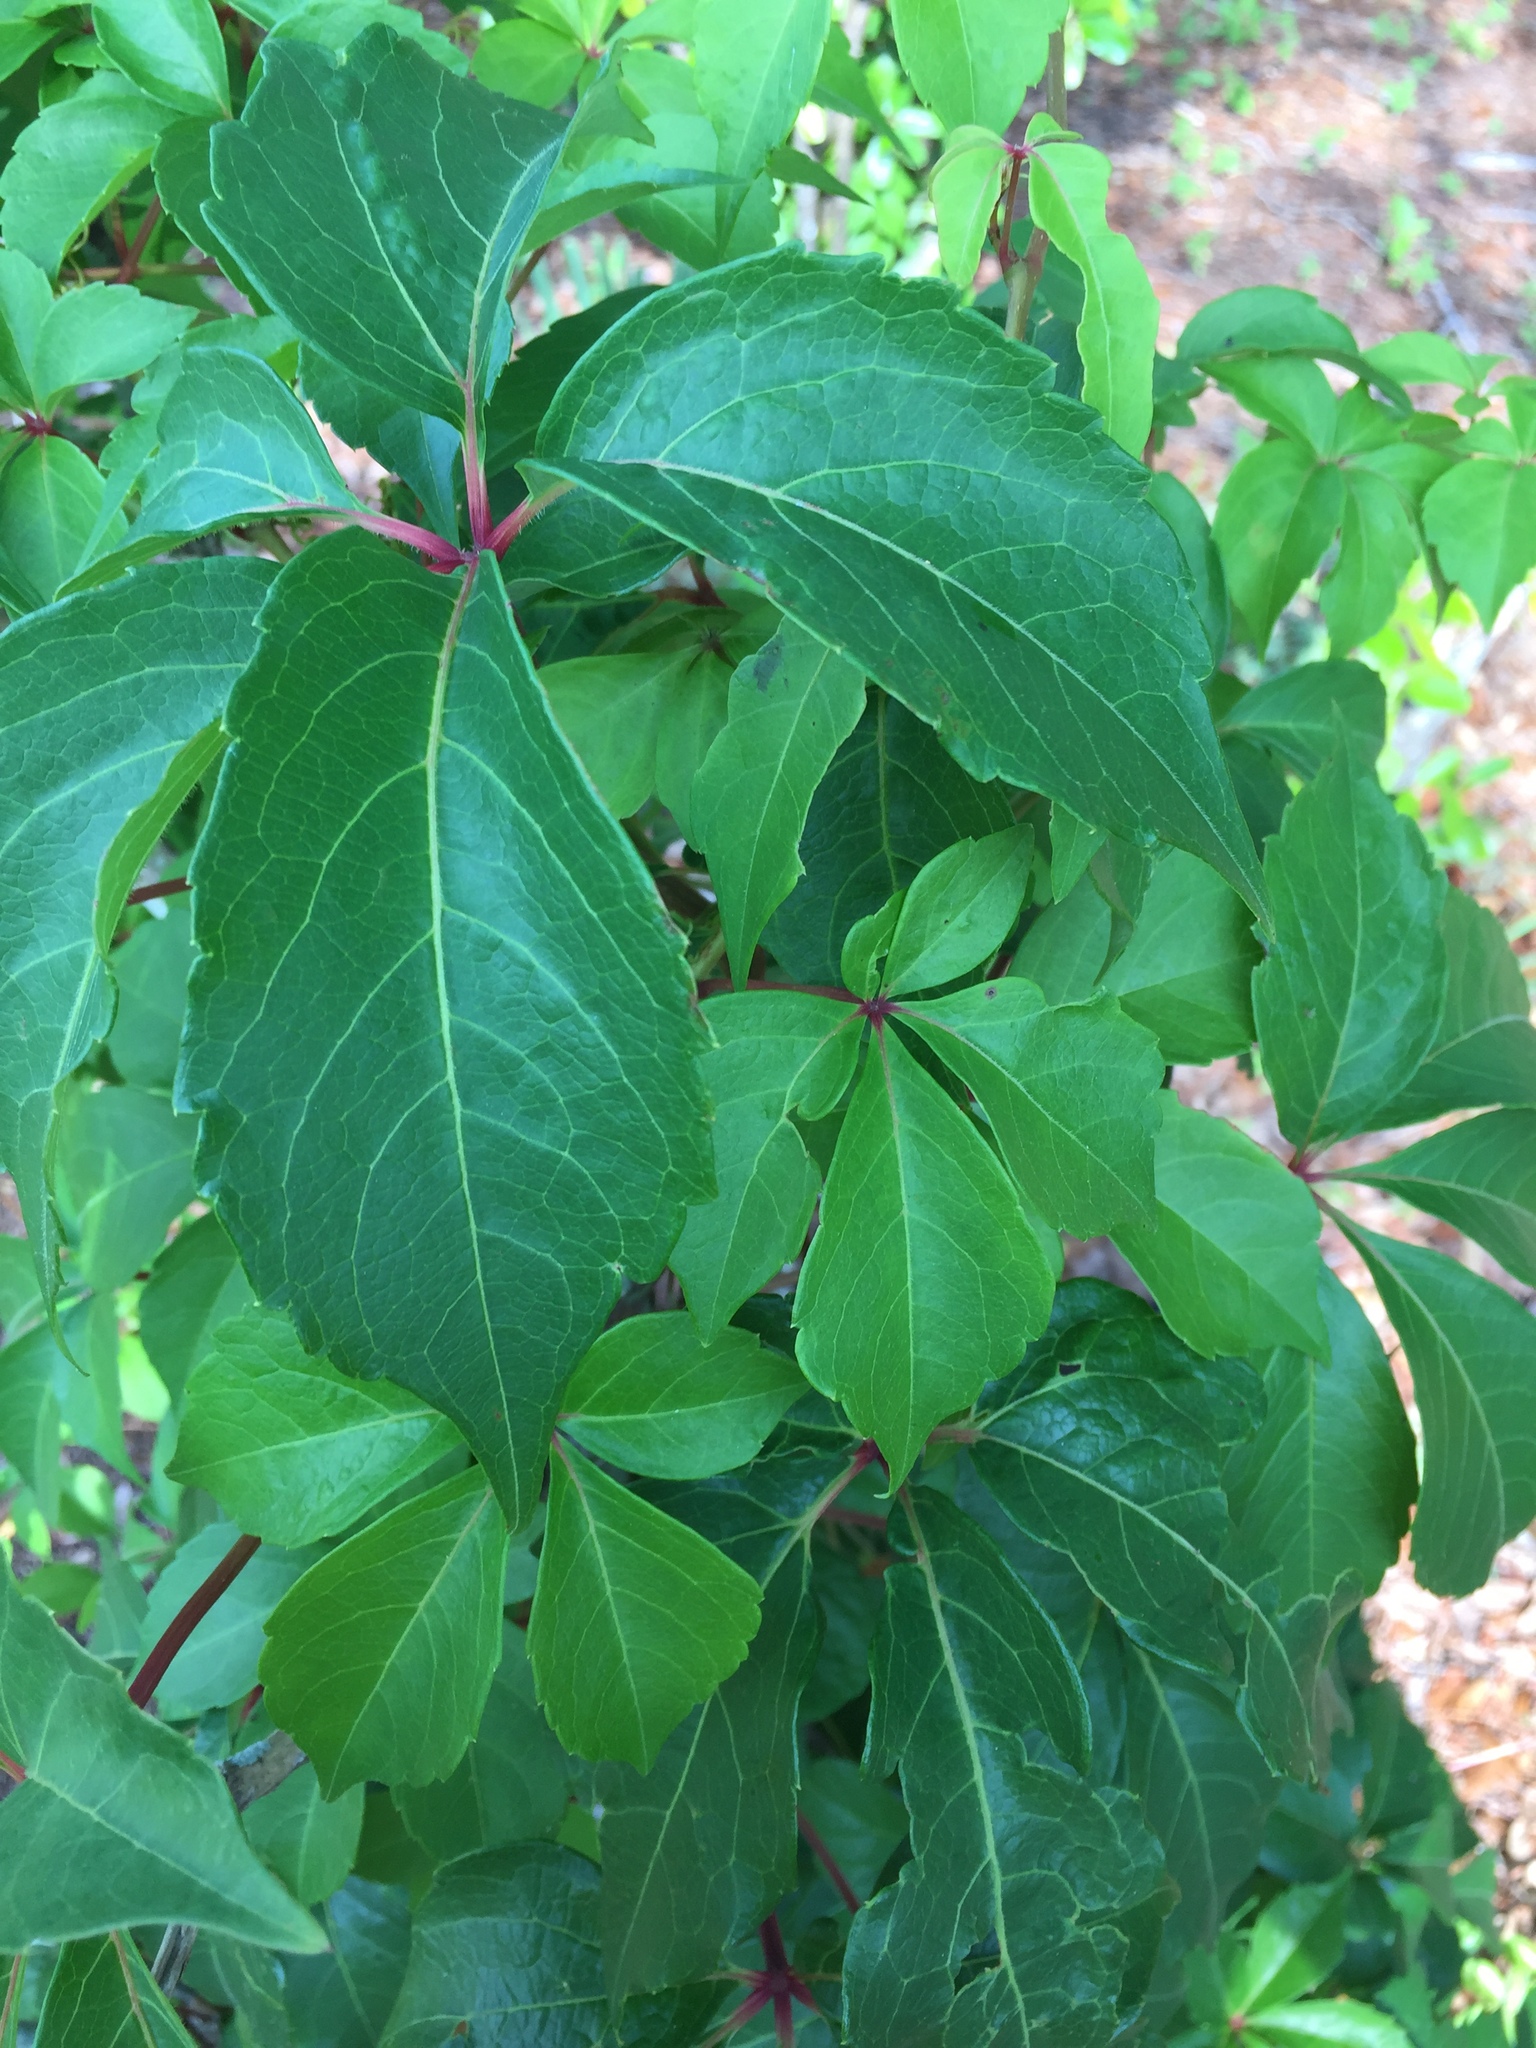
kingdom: Plantae
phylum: Tracheophyta
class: Magnoliopsida
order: Vitales
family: Vitaceae
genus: Parthenocissus
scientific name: Parthenocissus quinquefolia
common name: Virginia-creeper
